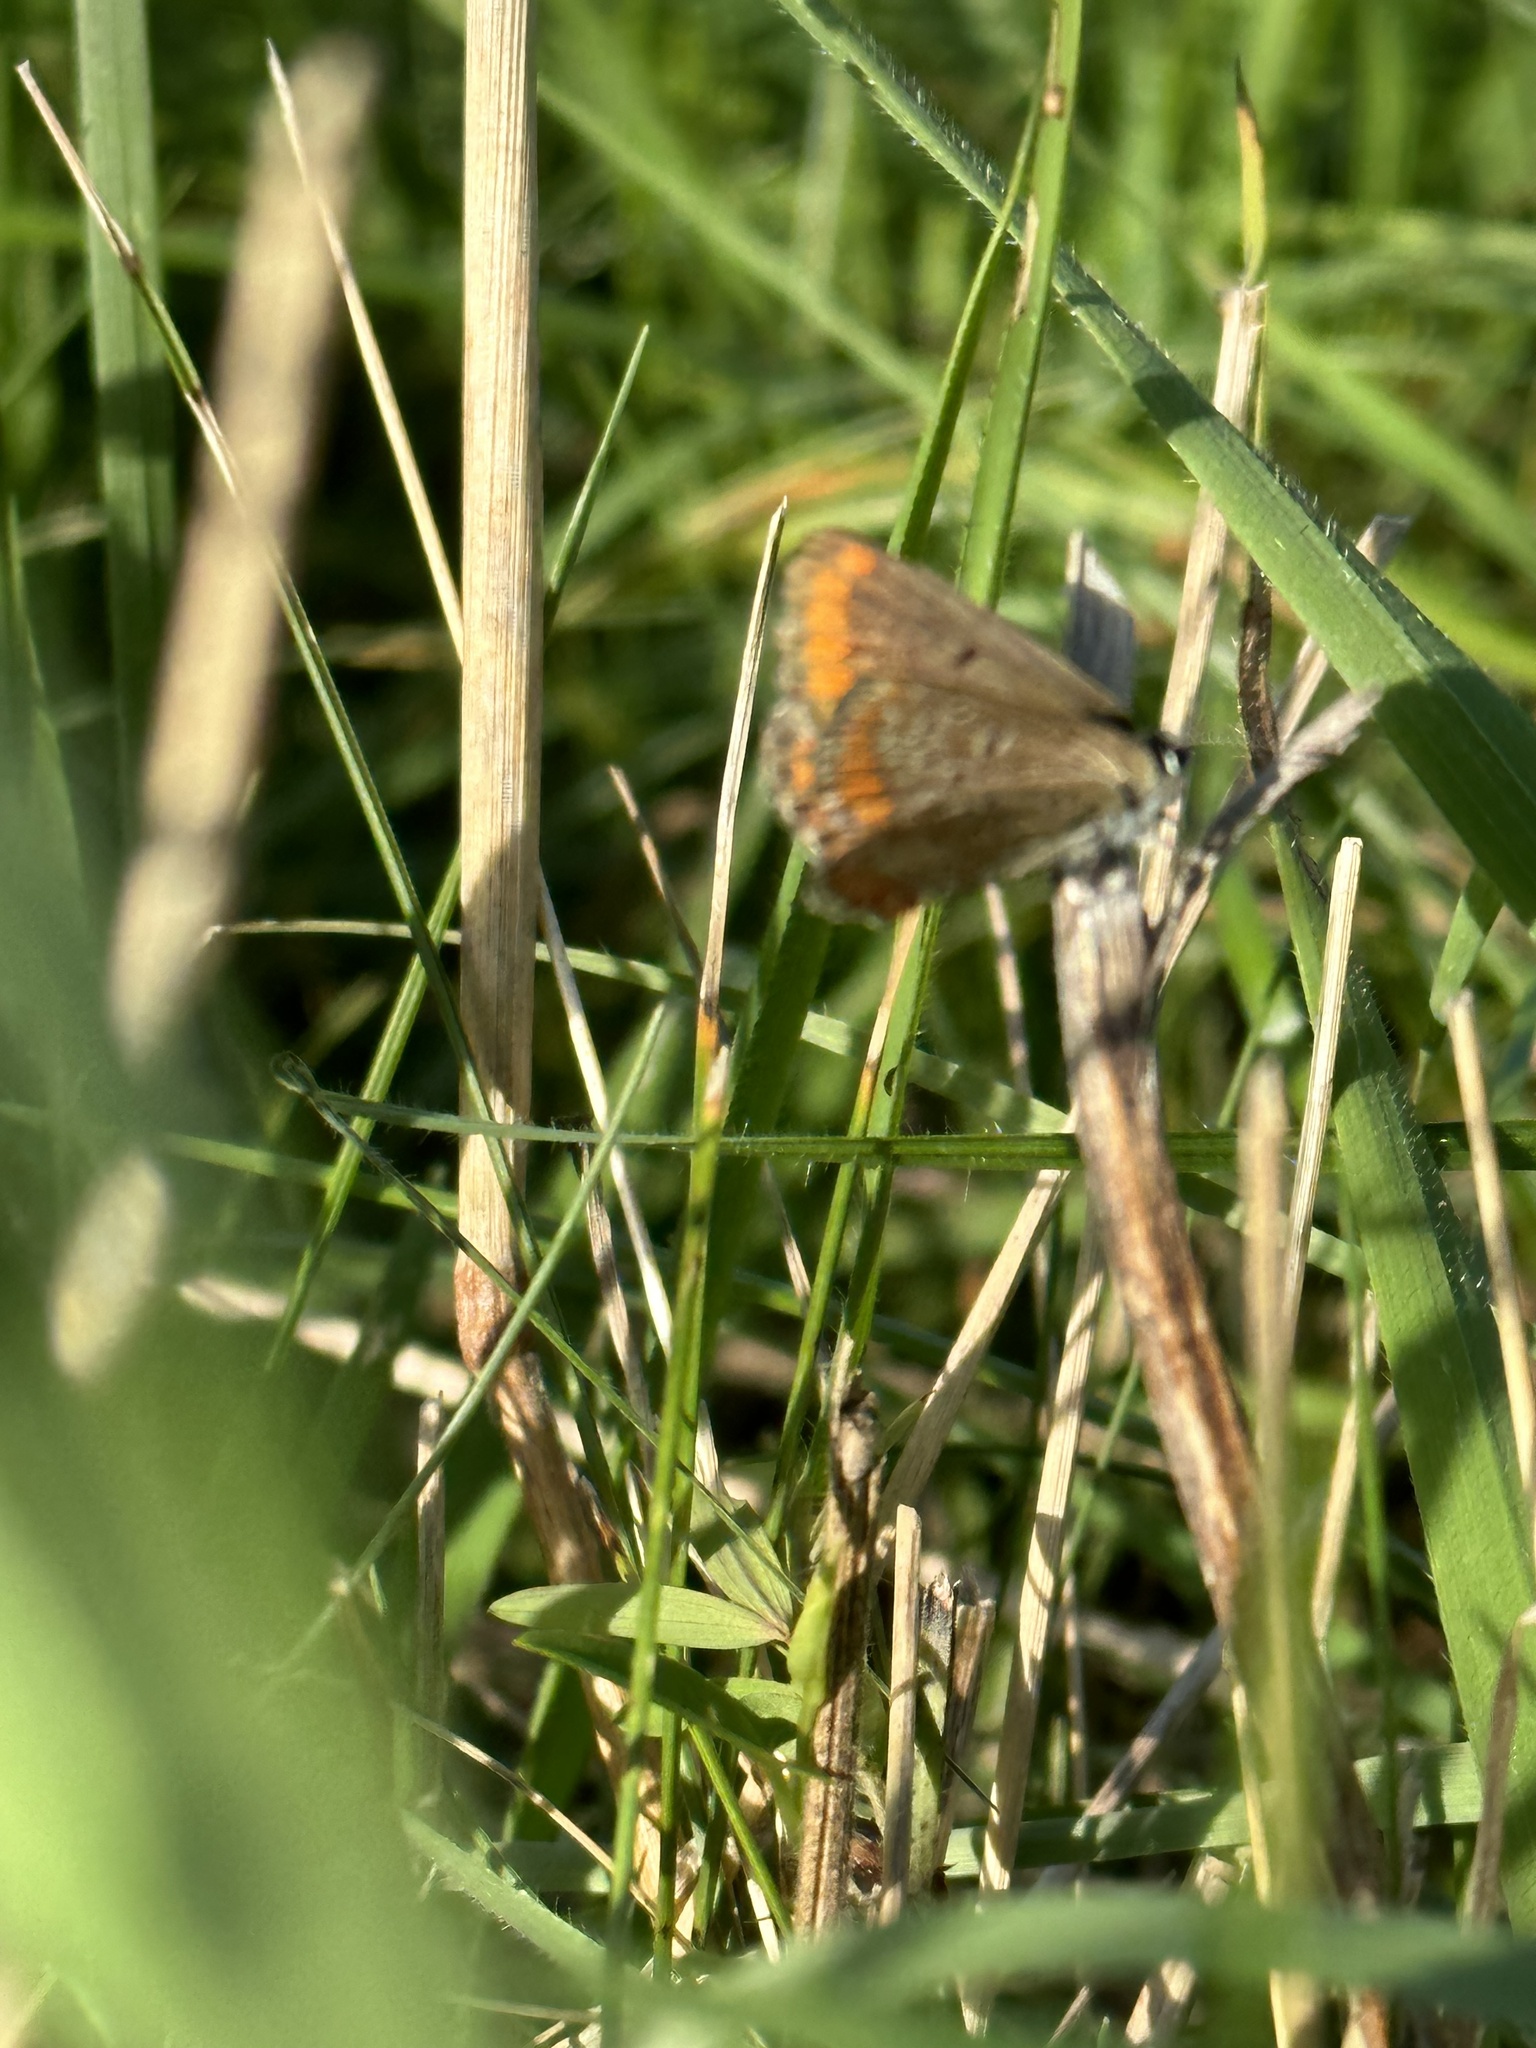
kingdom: Animalia
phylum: Arthropoda
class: Insecta
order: Lepidoptera
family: Lycaenidae
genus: Aricia
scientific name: Aricia agestis
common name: Brown argus
